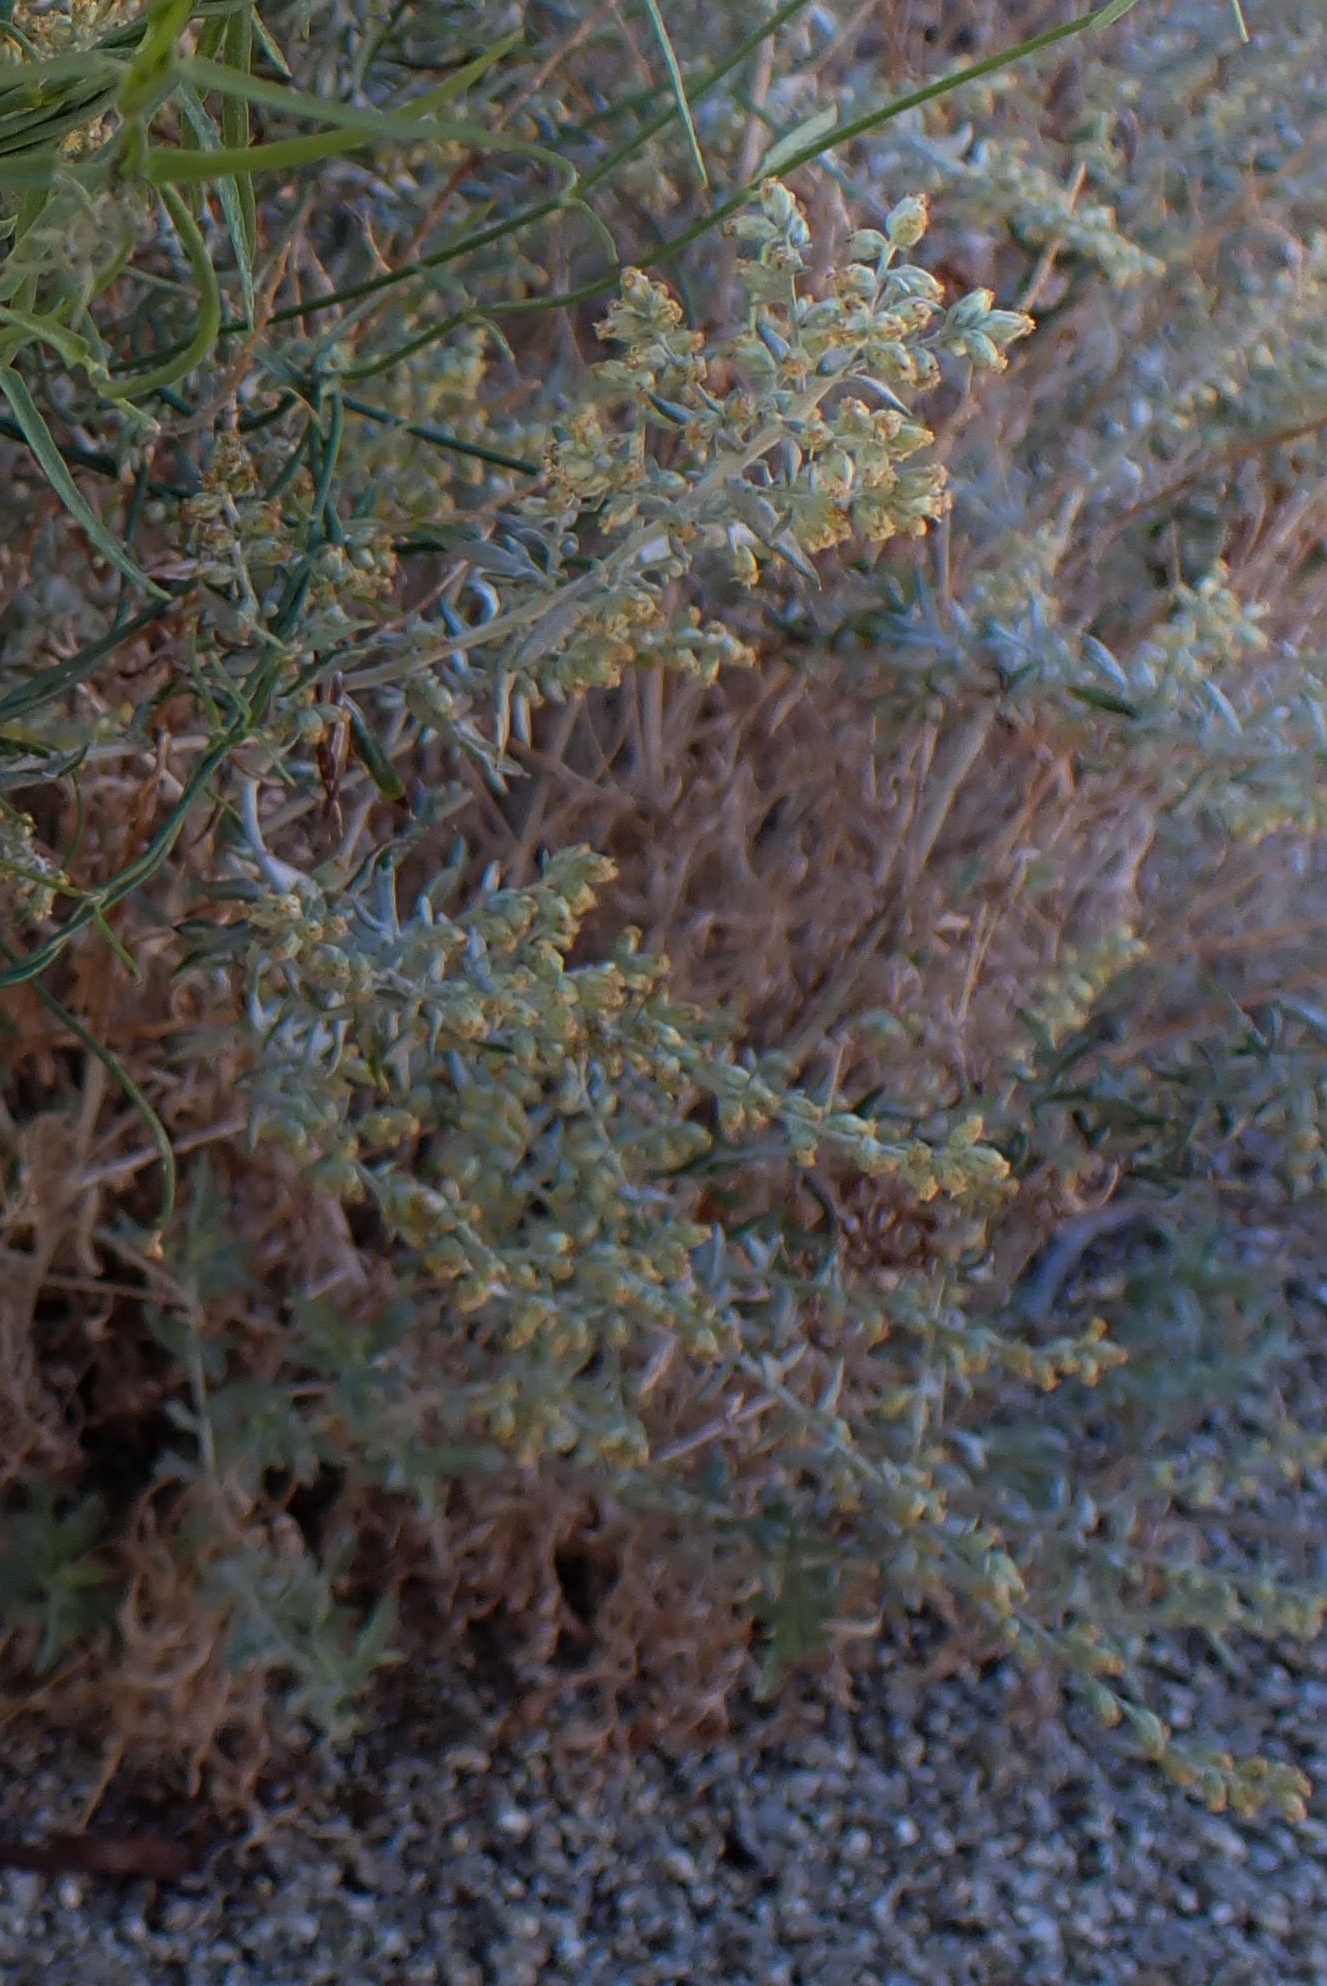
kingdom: Plantae
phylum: Tracheophyta
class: Magnoliopsida
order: Asterales
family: Asteraceae
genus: Artemisia
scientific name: Artemisia ludoviciana
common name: Western mugwort
